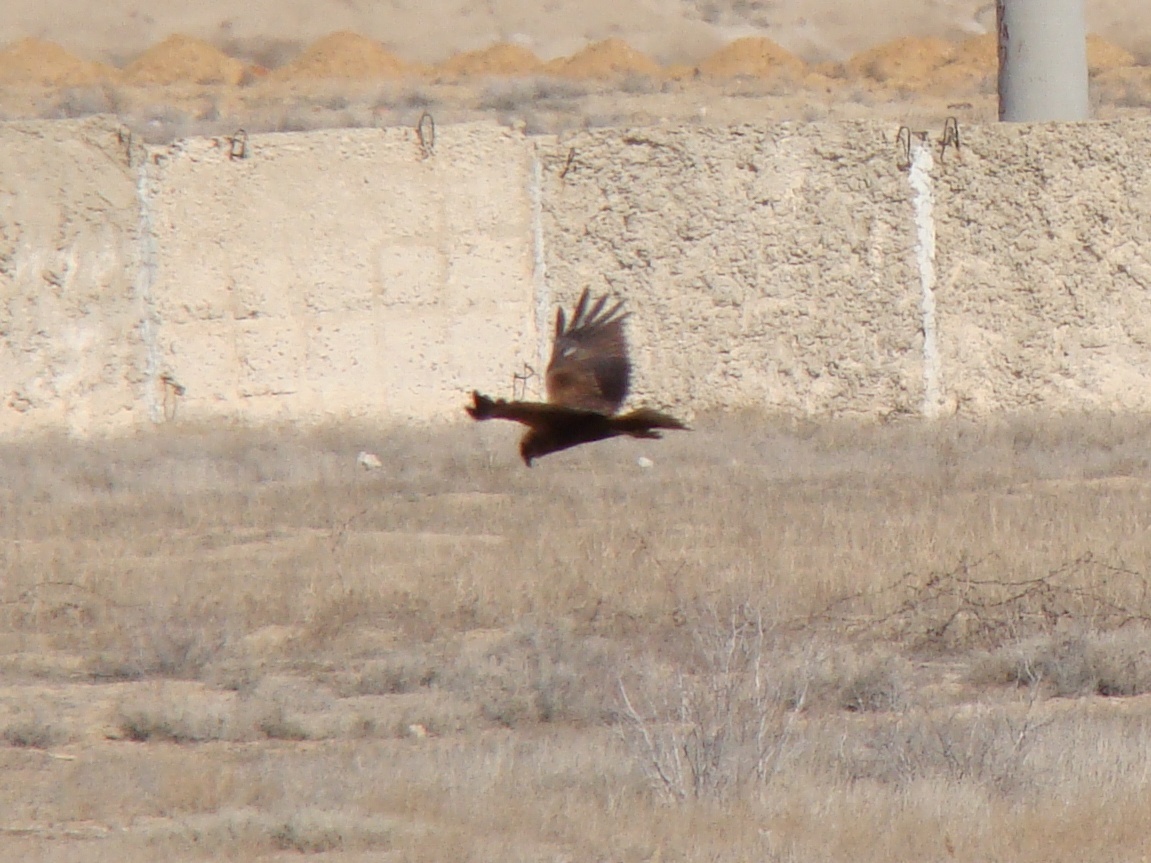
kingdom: Animalia
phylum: Chordata
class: Aves
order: Accipitriformes
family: Accipitridae
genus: Circus
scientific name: Circus aeruginosus
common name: Western marsh harrier
